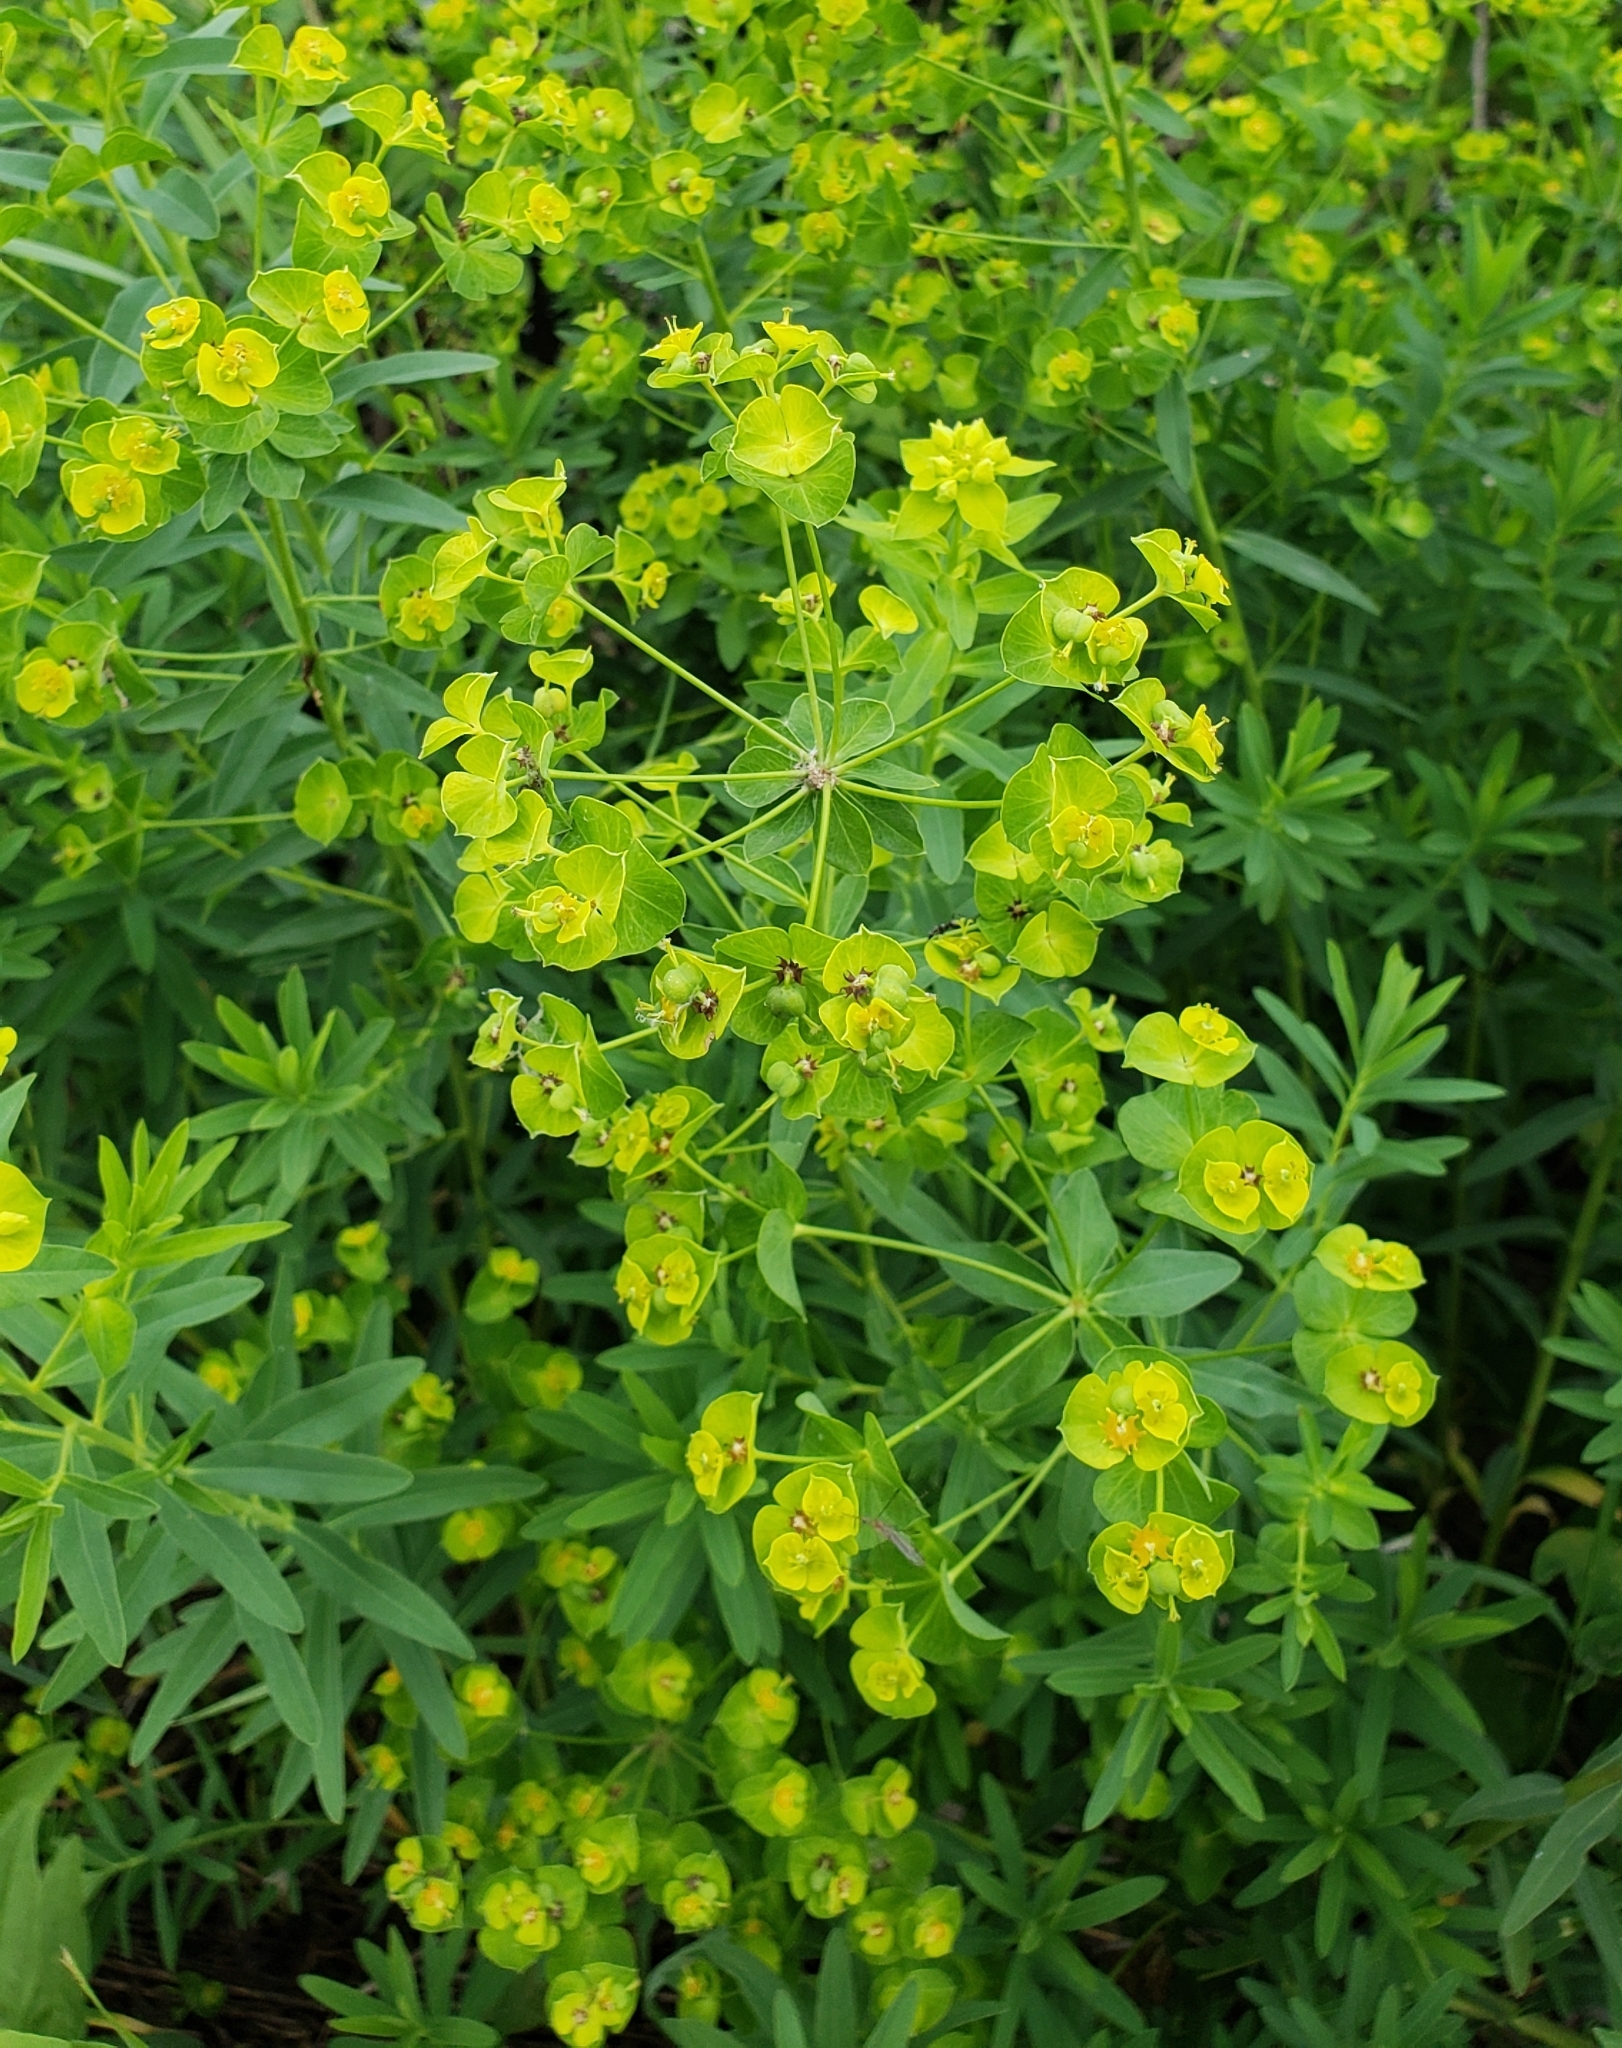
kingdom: Plantae
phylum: Tracheophyta
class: Magnoliopsida
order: Malpighiales
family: Euphorbiaceae
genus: Euphorbia
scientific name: Euphorbia virgata
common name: Leafy spurge
